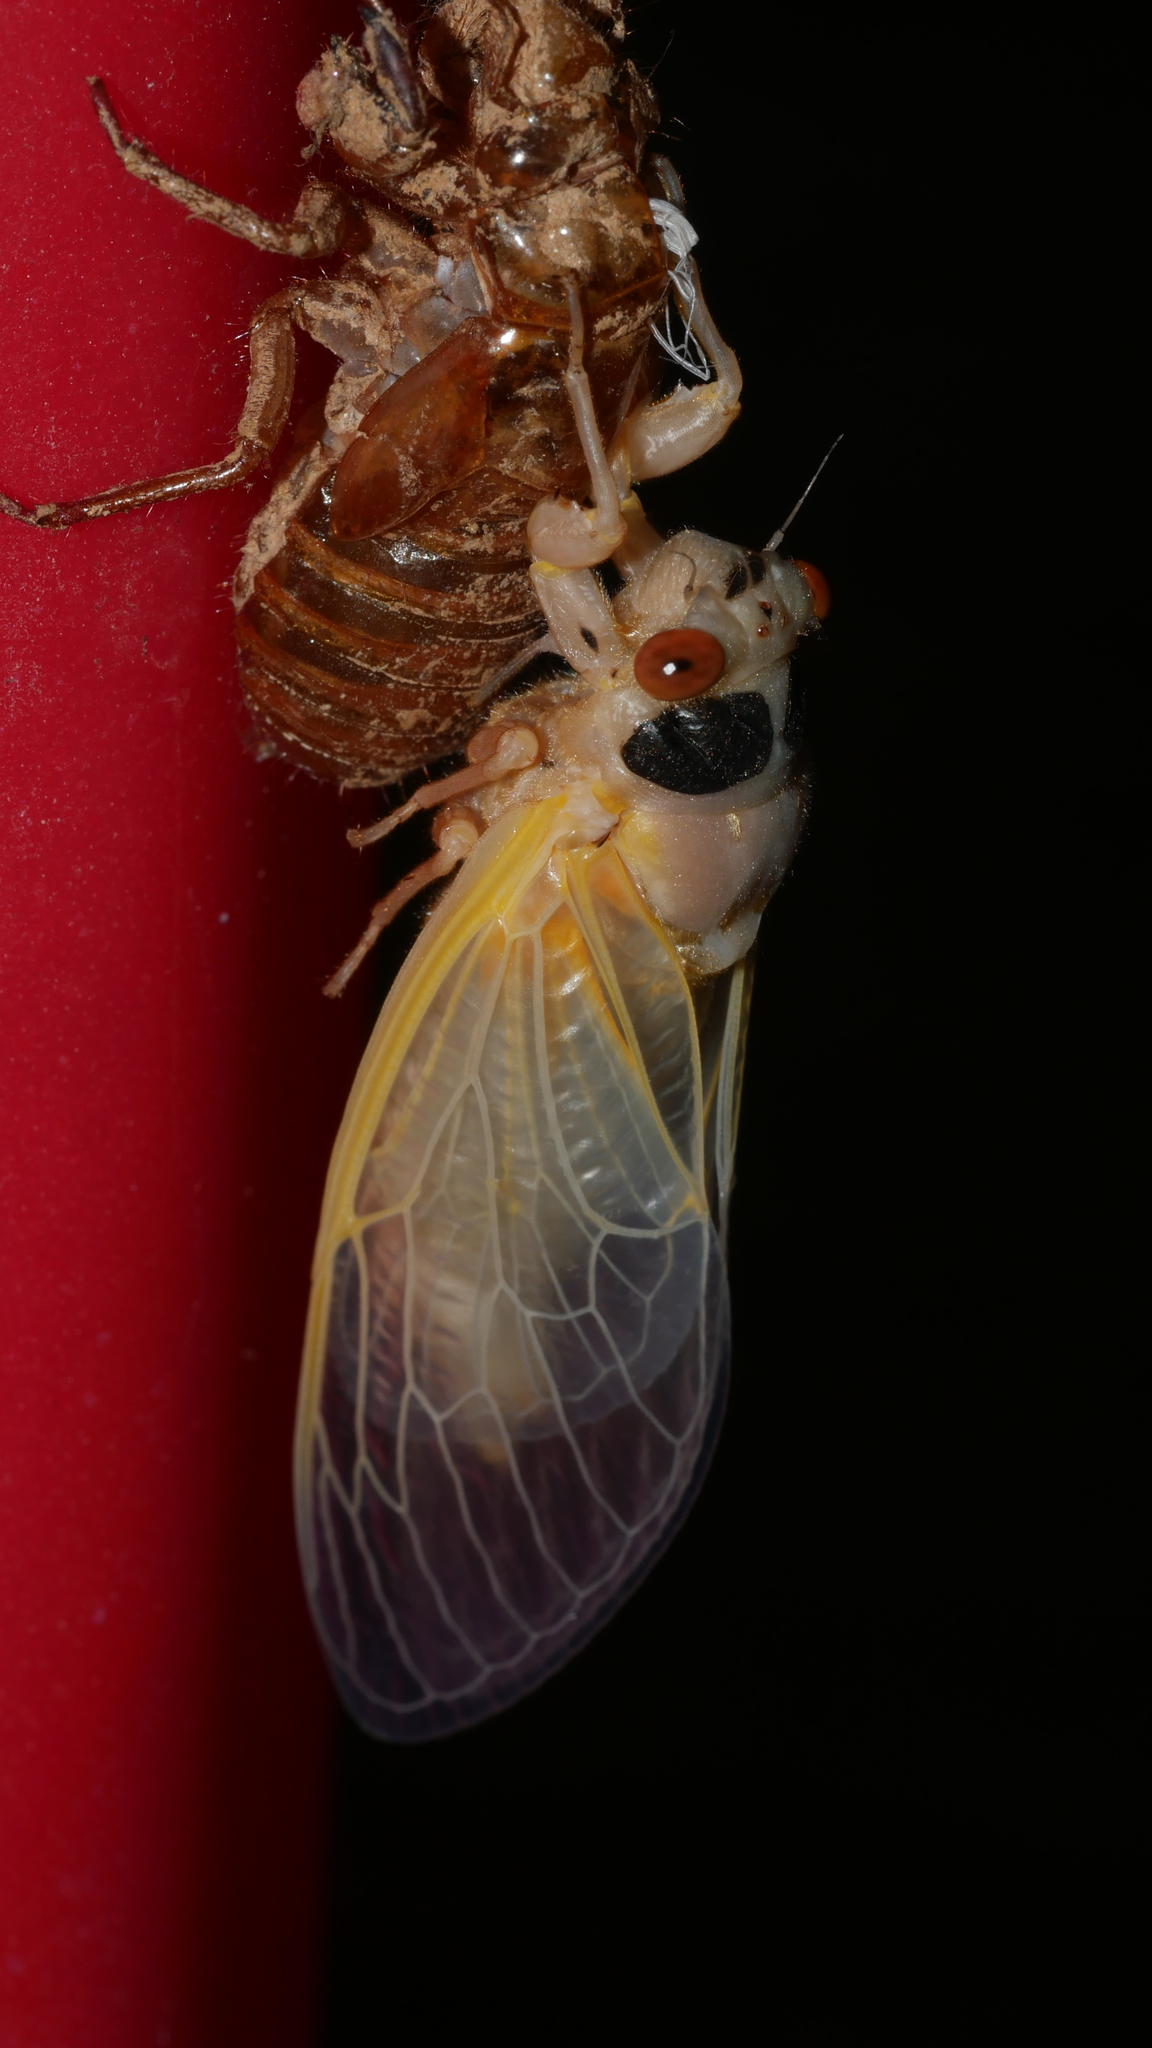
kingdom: Animalia
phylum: Arthropoda
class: Insecta
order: Hemiptera
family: Cicadidae
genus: Magicicada
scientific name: Magicicada
